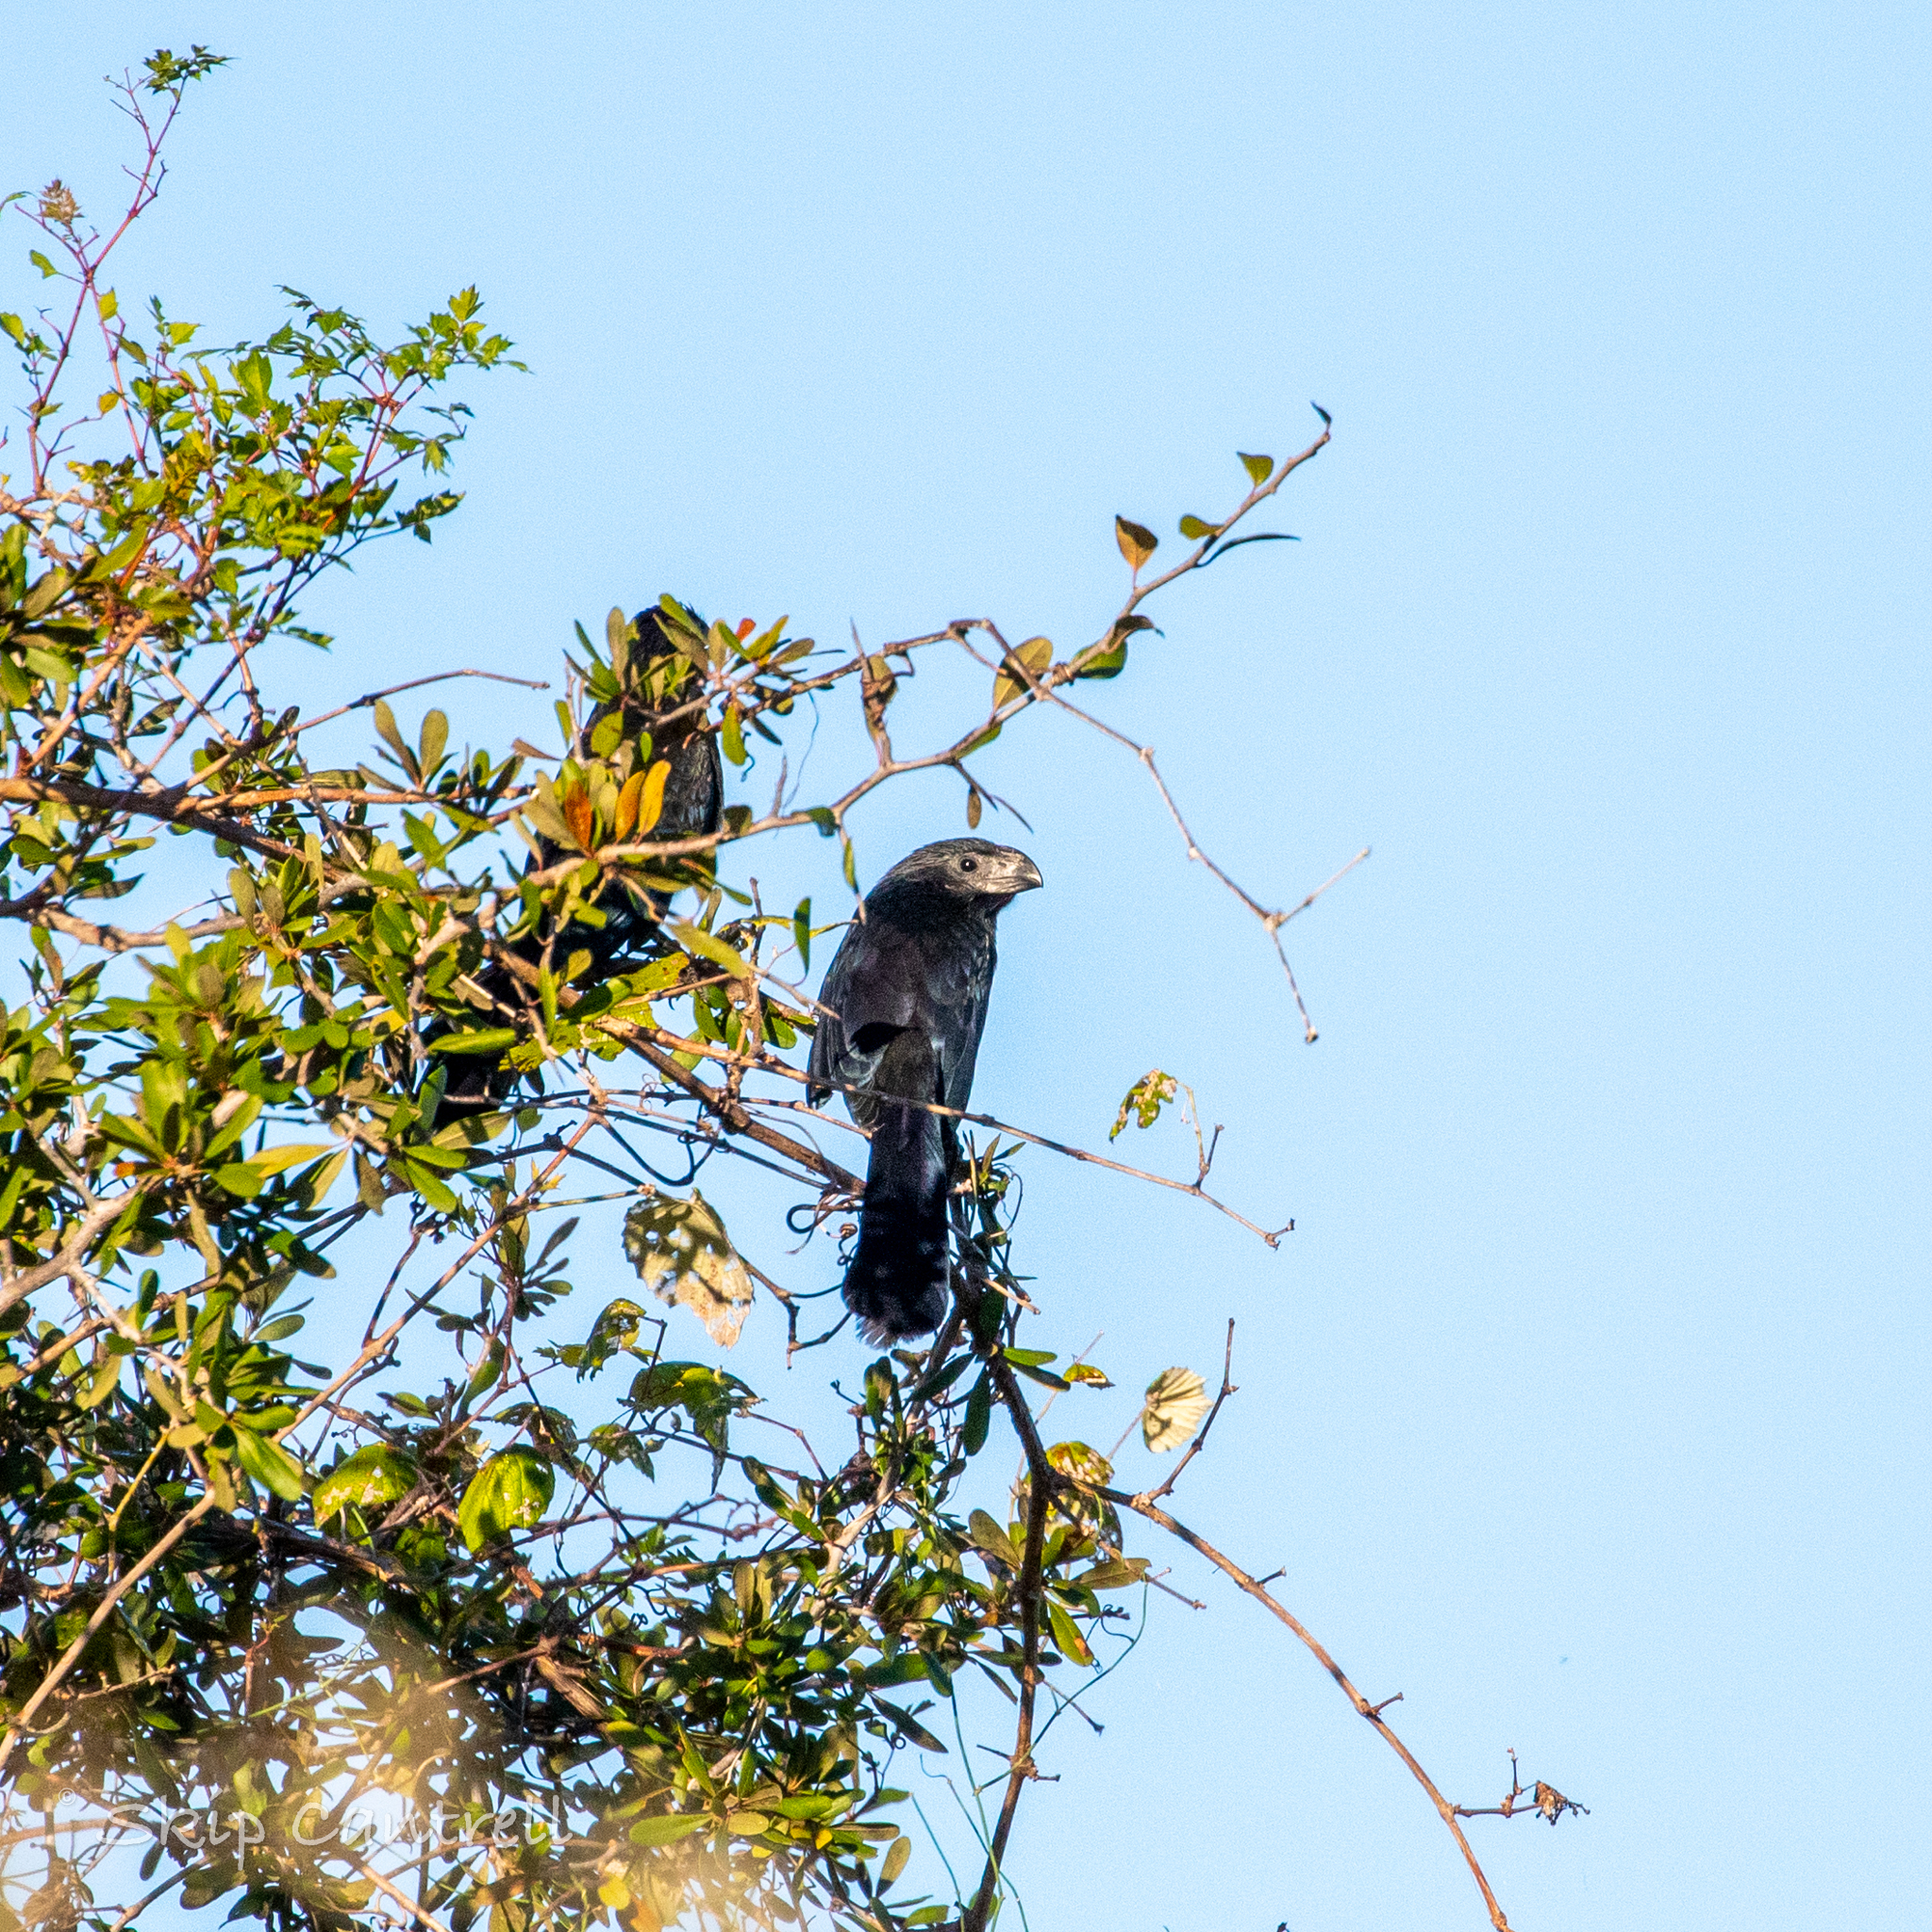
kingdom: Animalia
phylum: Chordata
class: Aves
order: Cuculiformes
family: Cuculidae
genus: Crotophaga
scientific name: Crotophaga sulcirostris
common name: Groove-billed ani
